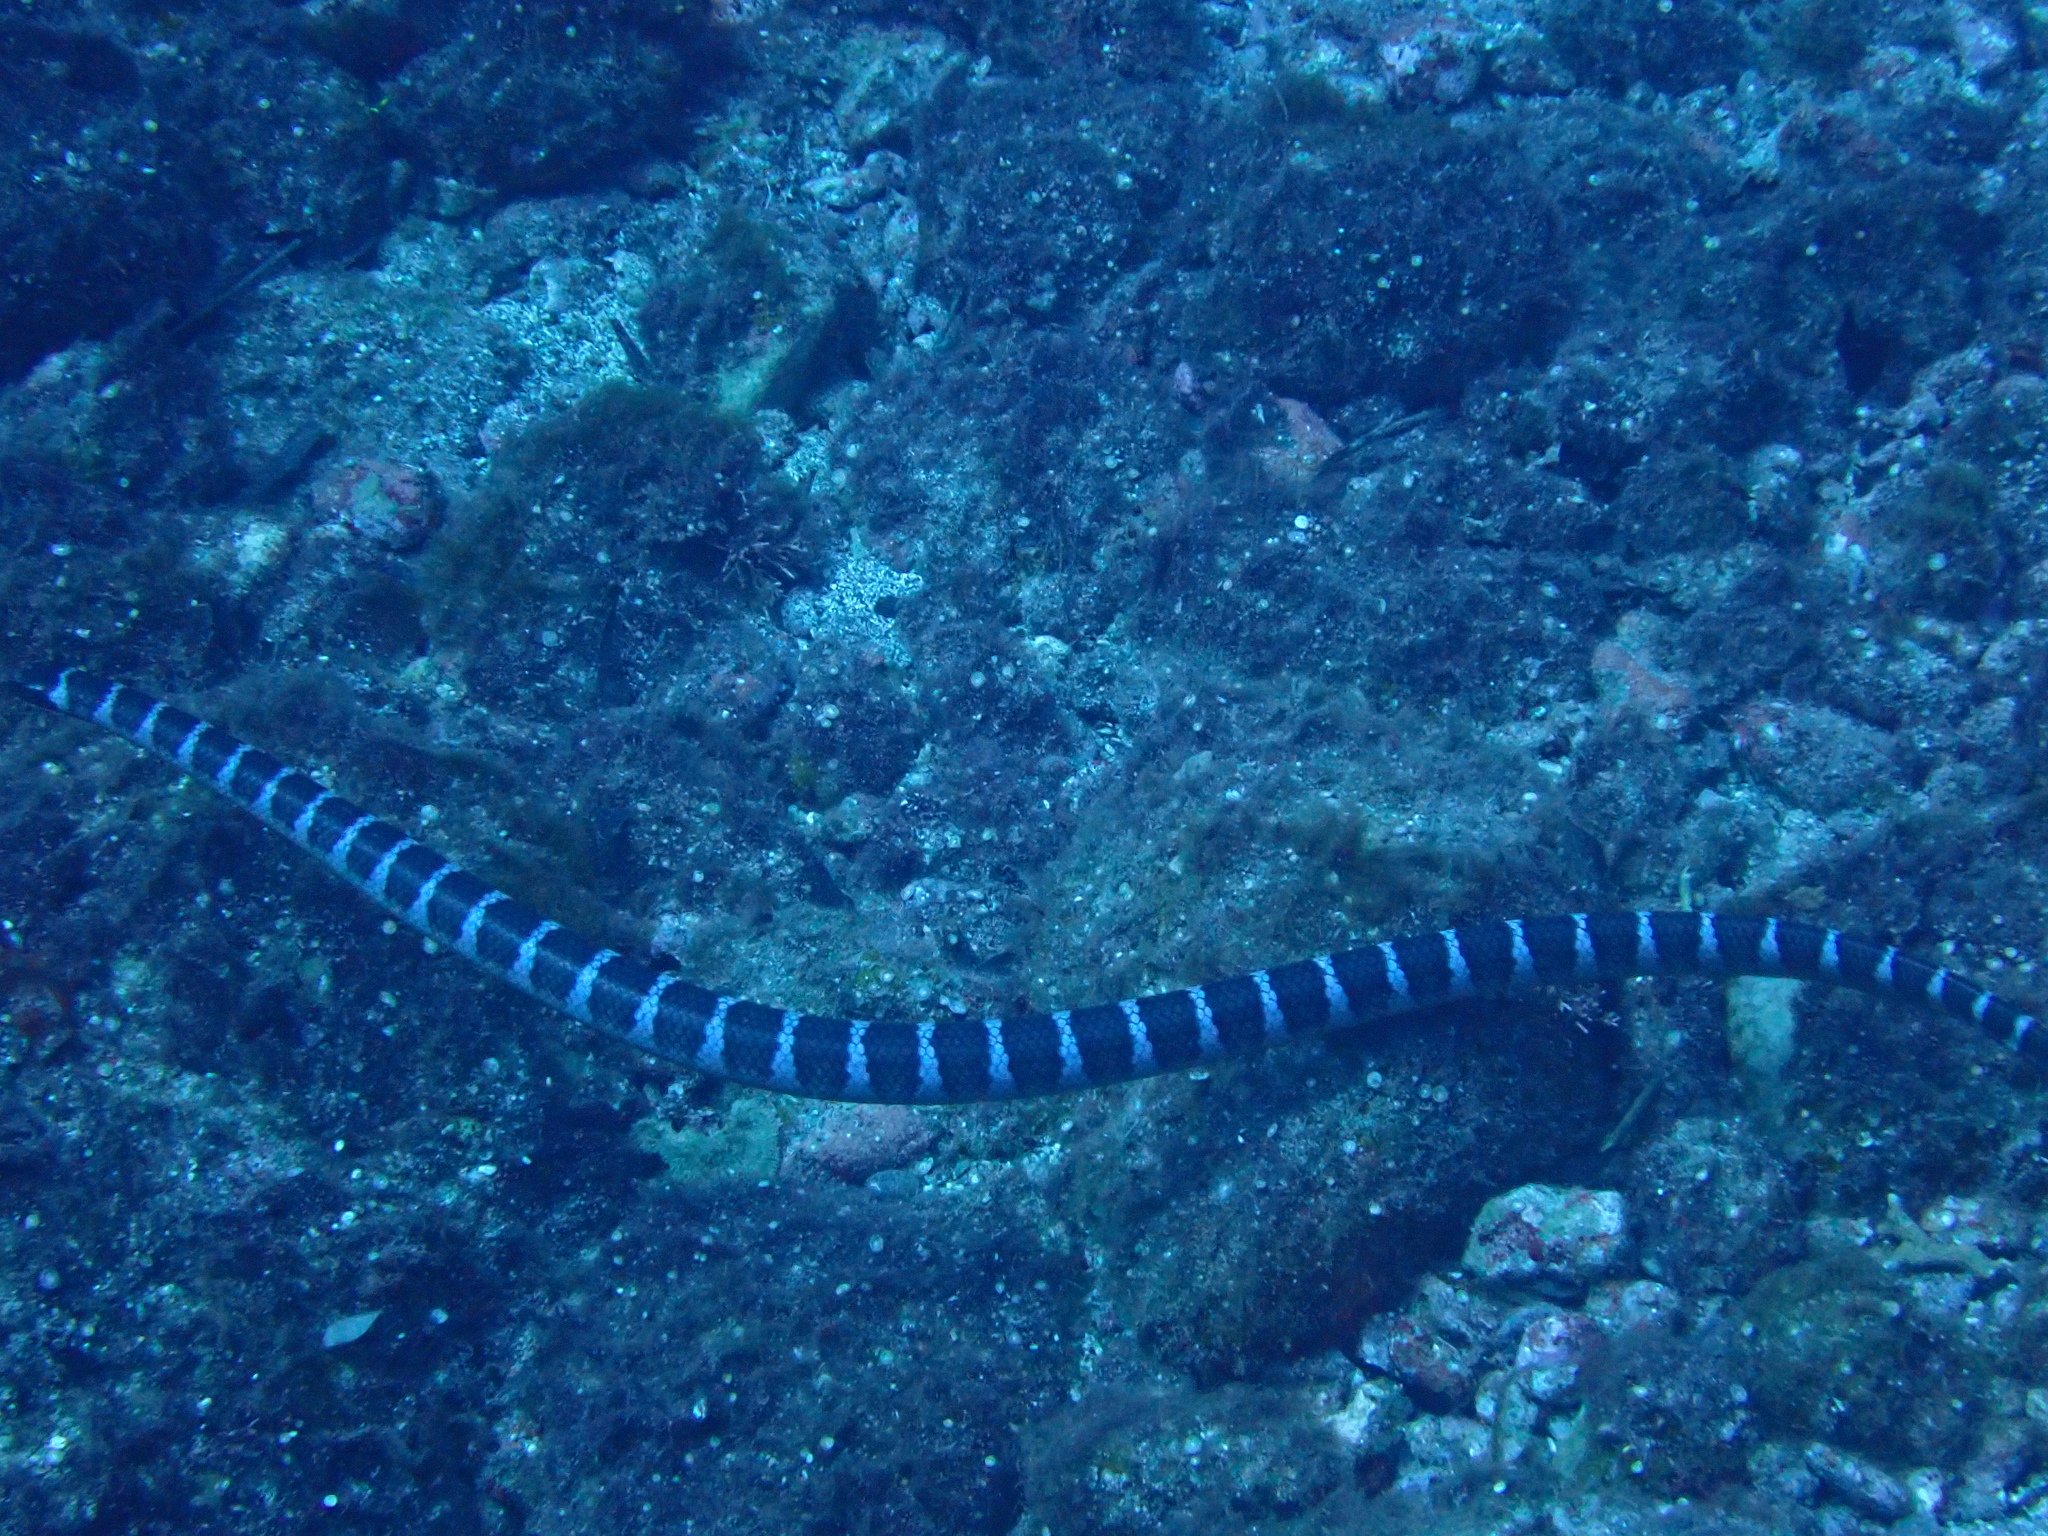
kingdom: Animalia
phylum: Chordata
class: Squamata
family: Elapidae
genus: Laticauda
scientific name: Laticauda semifasciata
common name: Chinese sea snake
